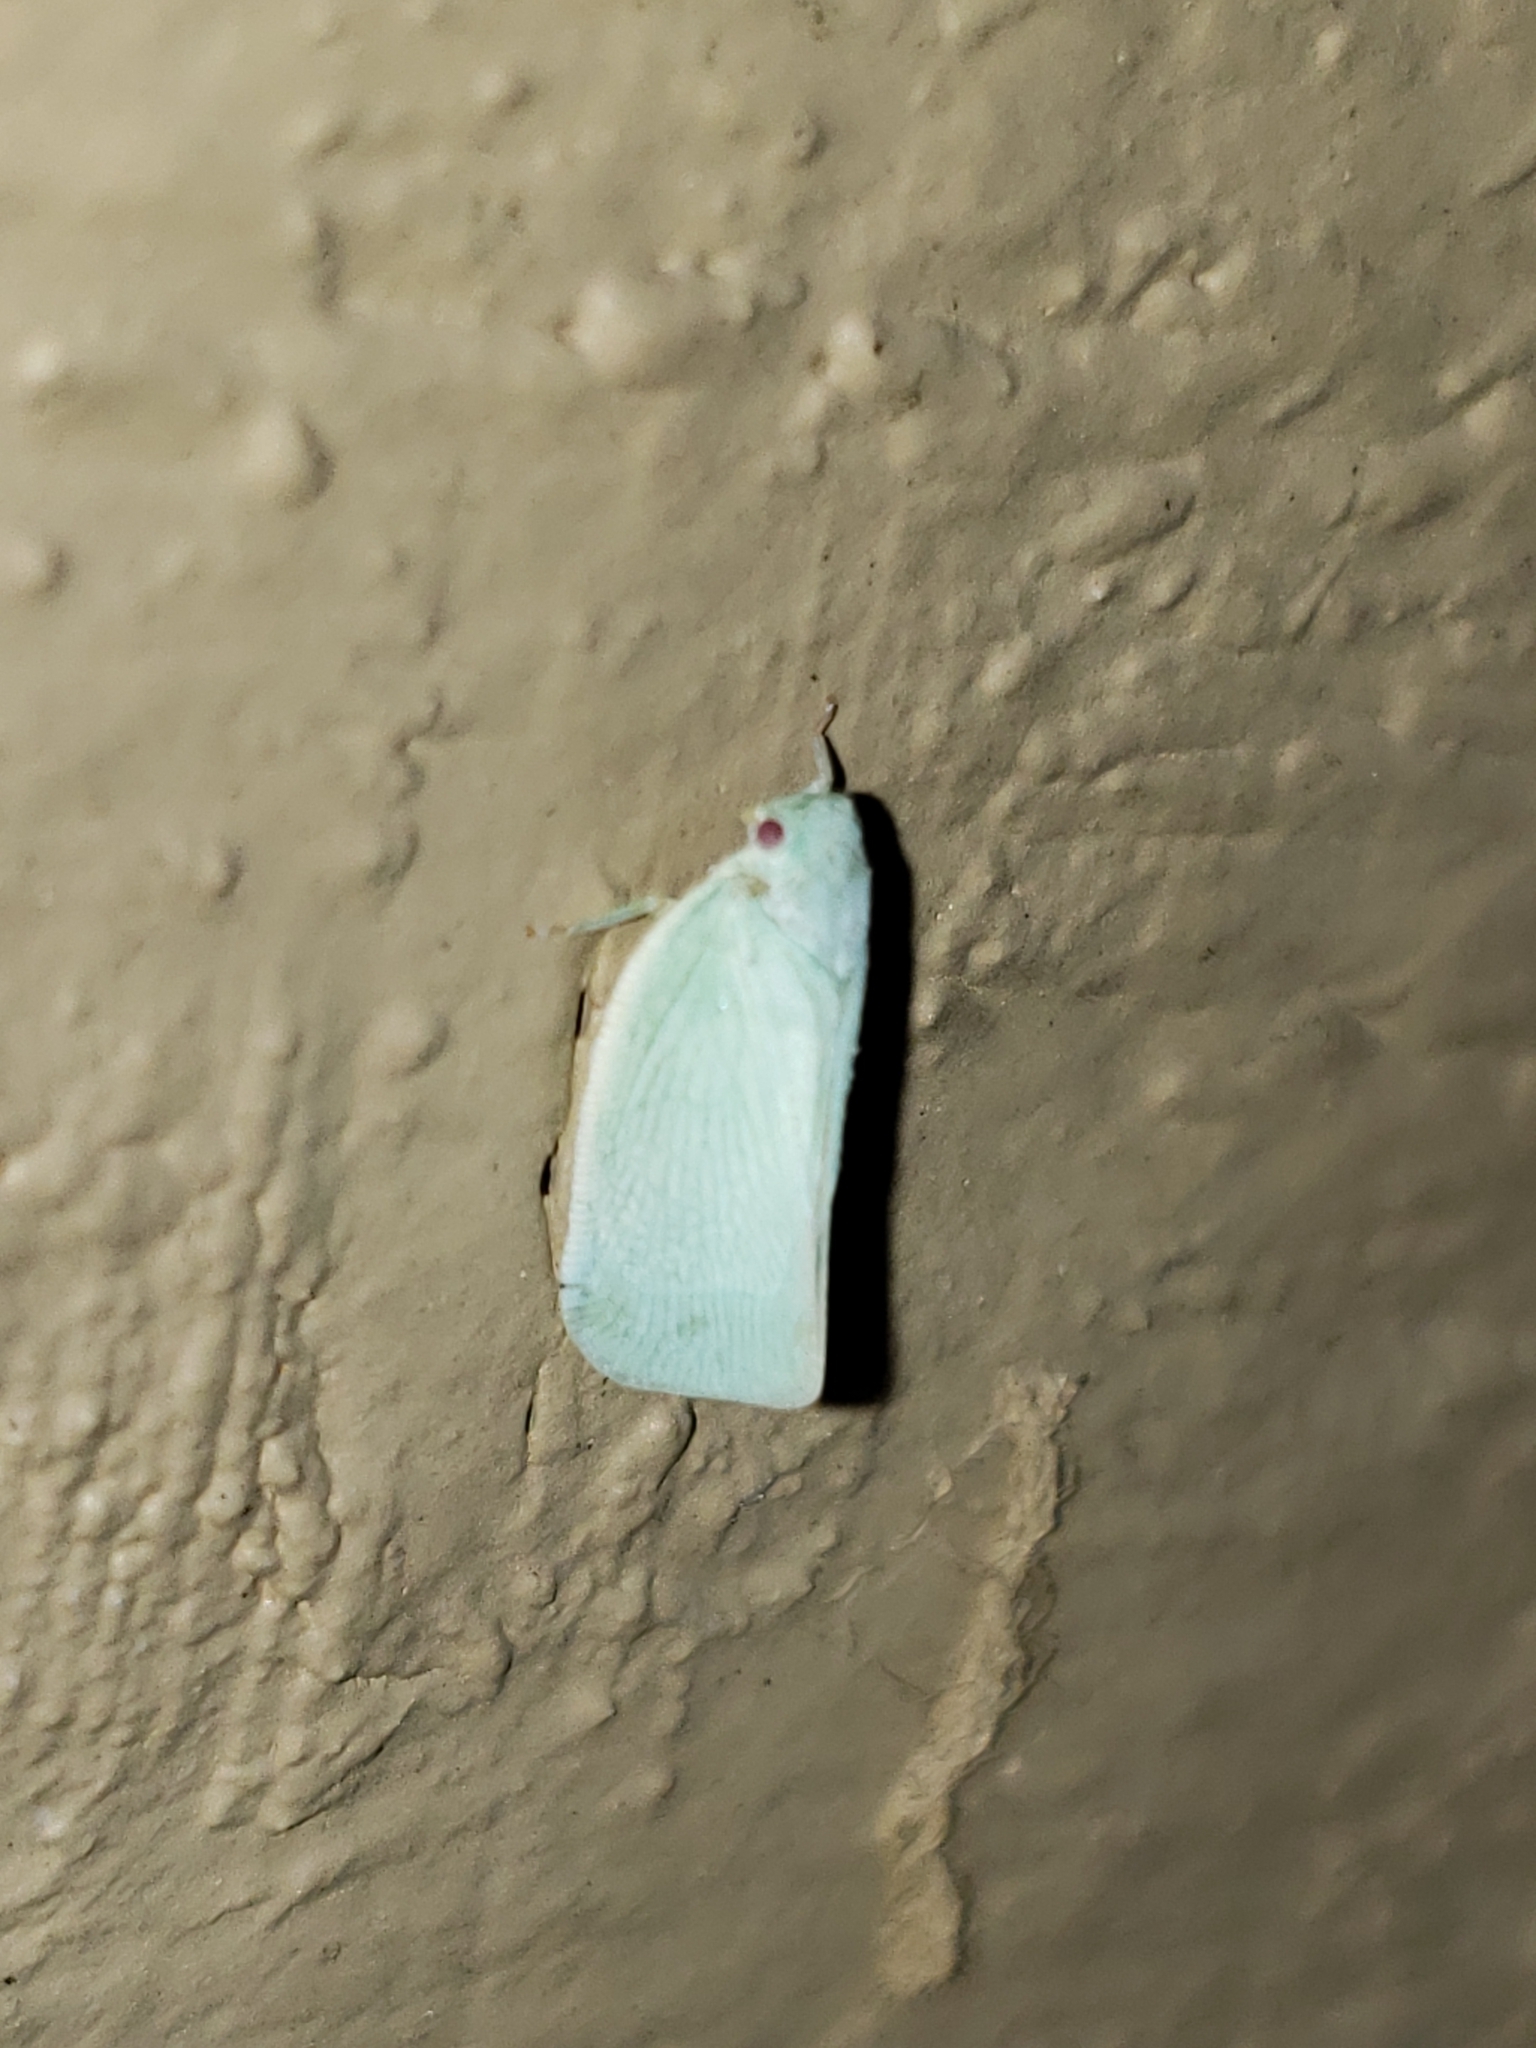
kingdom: Animalia
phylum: Arthropoda
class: Insecta
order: Hemiptera
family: Flatidae
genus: Flatormenis
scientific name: Flatormenis proxima
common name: Northern flatid planthopper
